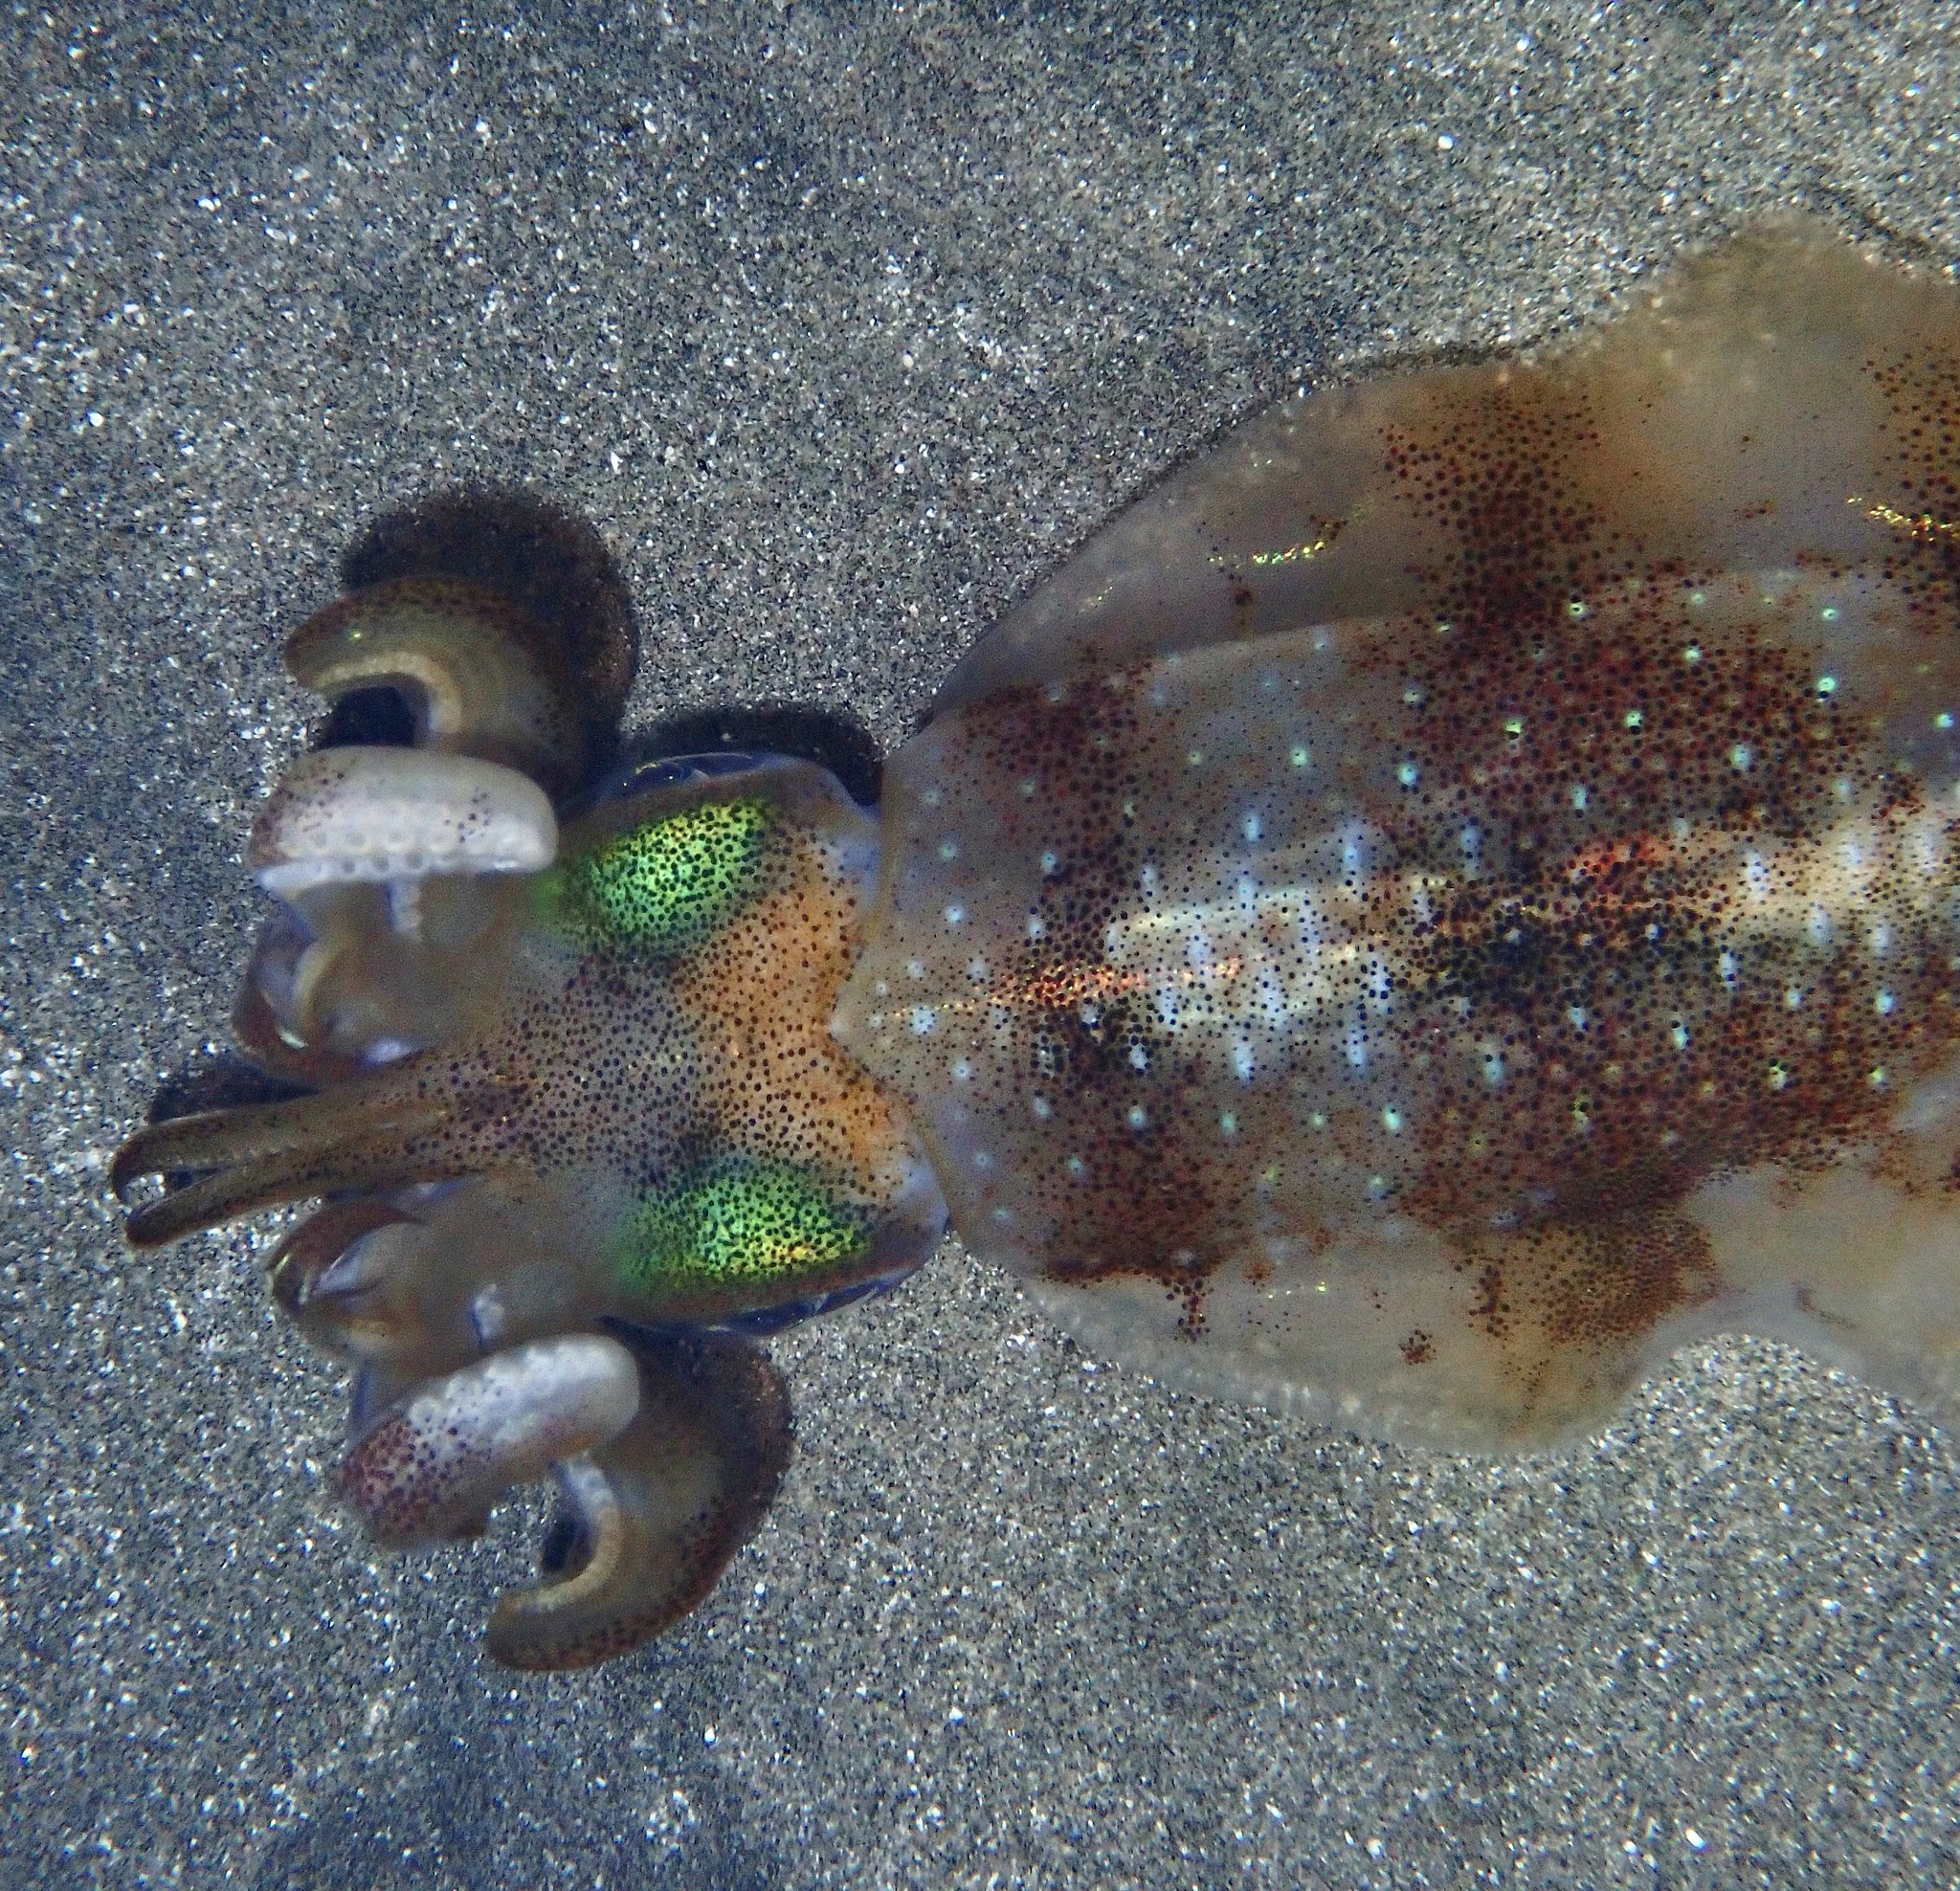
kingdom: Animalia
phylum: Mollusca
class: Cephalopoda
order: Myopsida
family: Loliginidae
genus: Sepioteuthis
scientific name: Sepioteuthis lessoniana
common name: Bigfin reef squid
